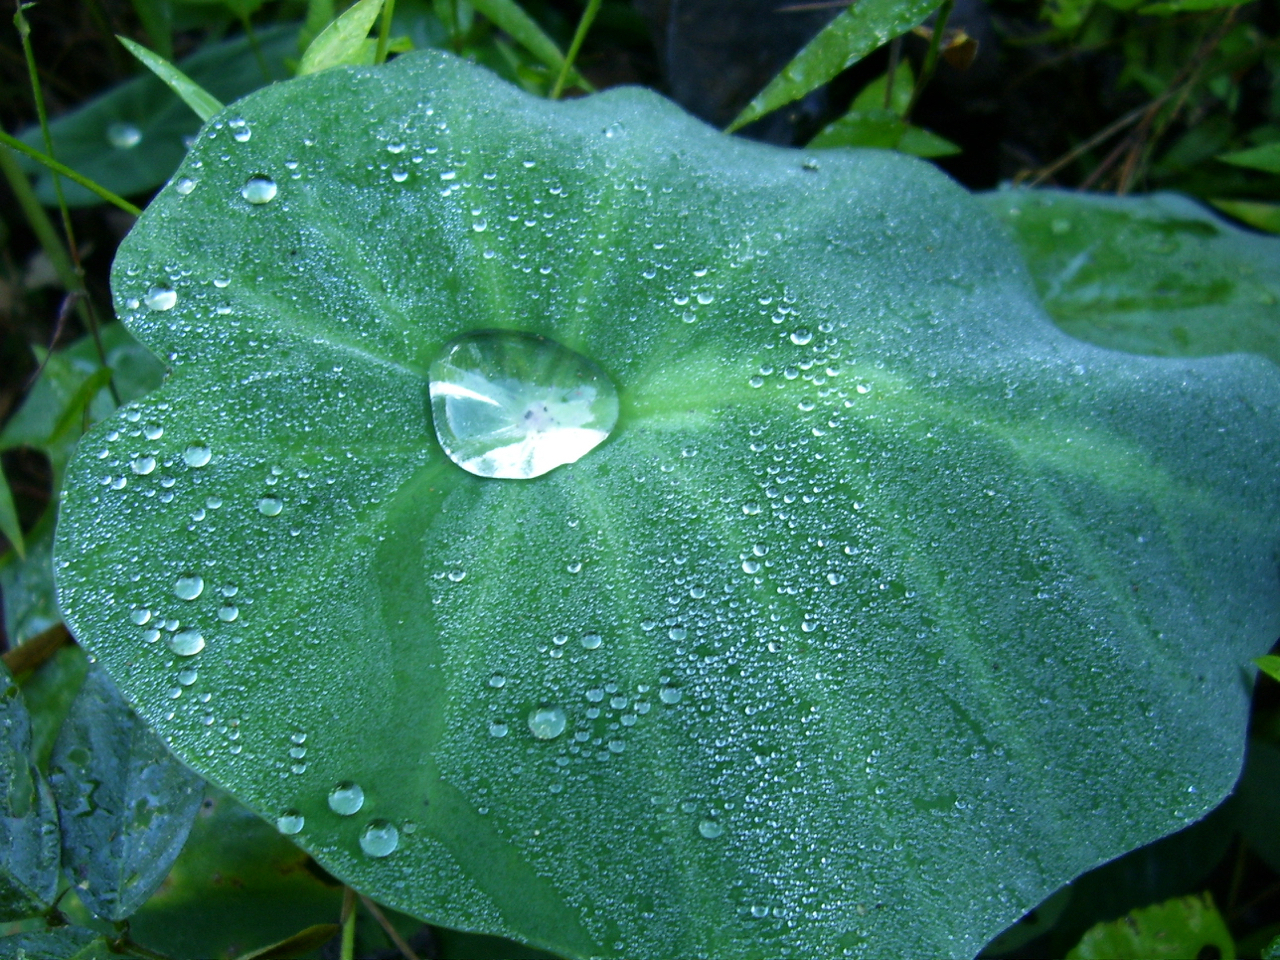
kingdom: Plantae
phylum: Tracheophyta
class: Liliopsida
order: Alismatales
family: Araceae
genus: Colocasia
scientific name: Colocasia esculenta
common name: Taro
